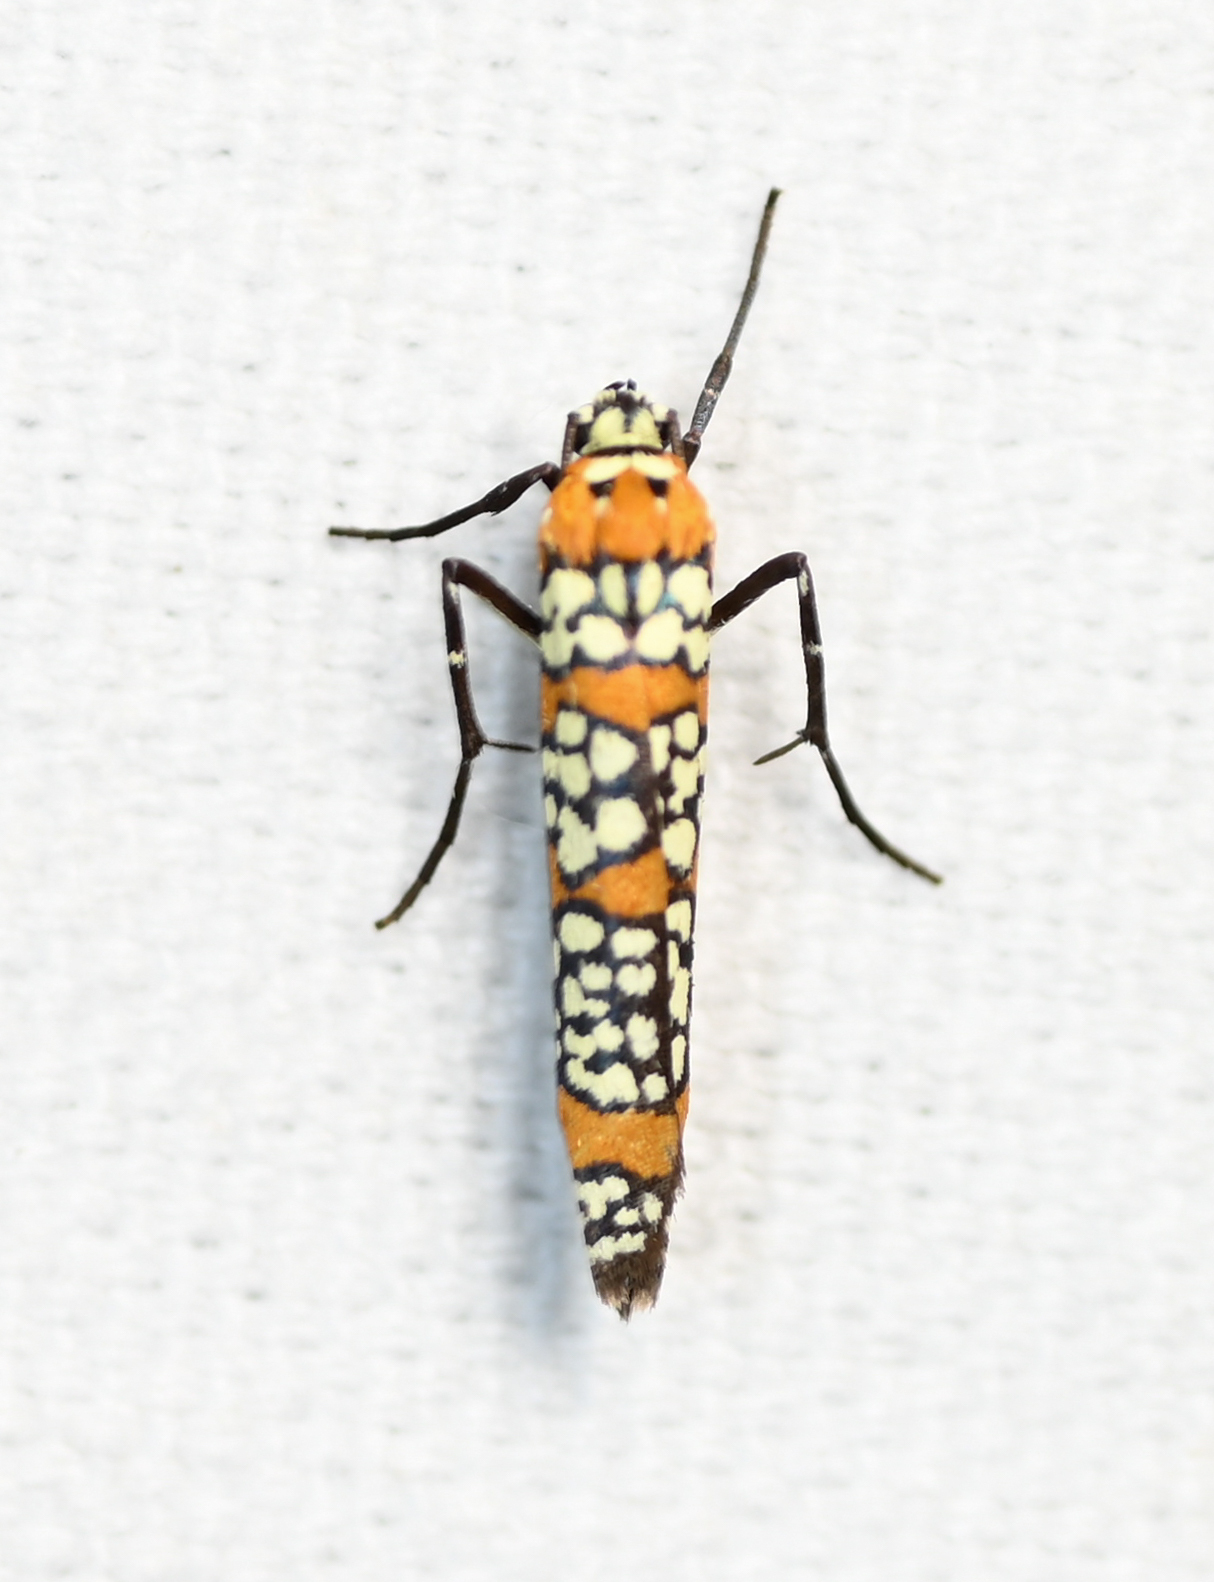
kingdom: Animalia
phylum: Arthropoda
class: Insecta
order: Lepidoptera
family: Attevidae
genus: Atteva
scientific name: Atteva punctella
